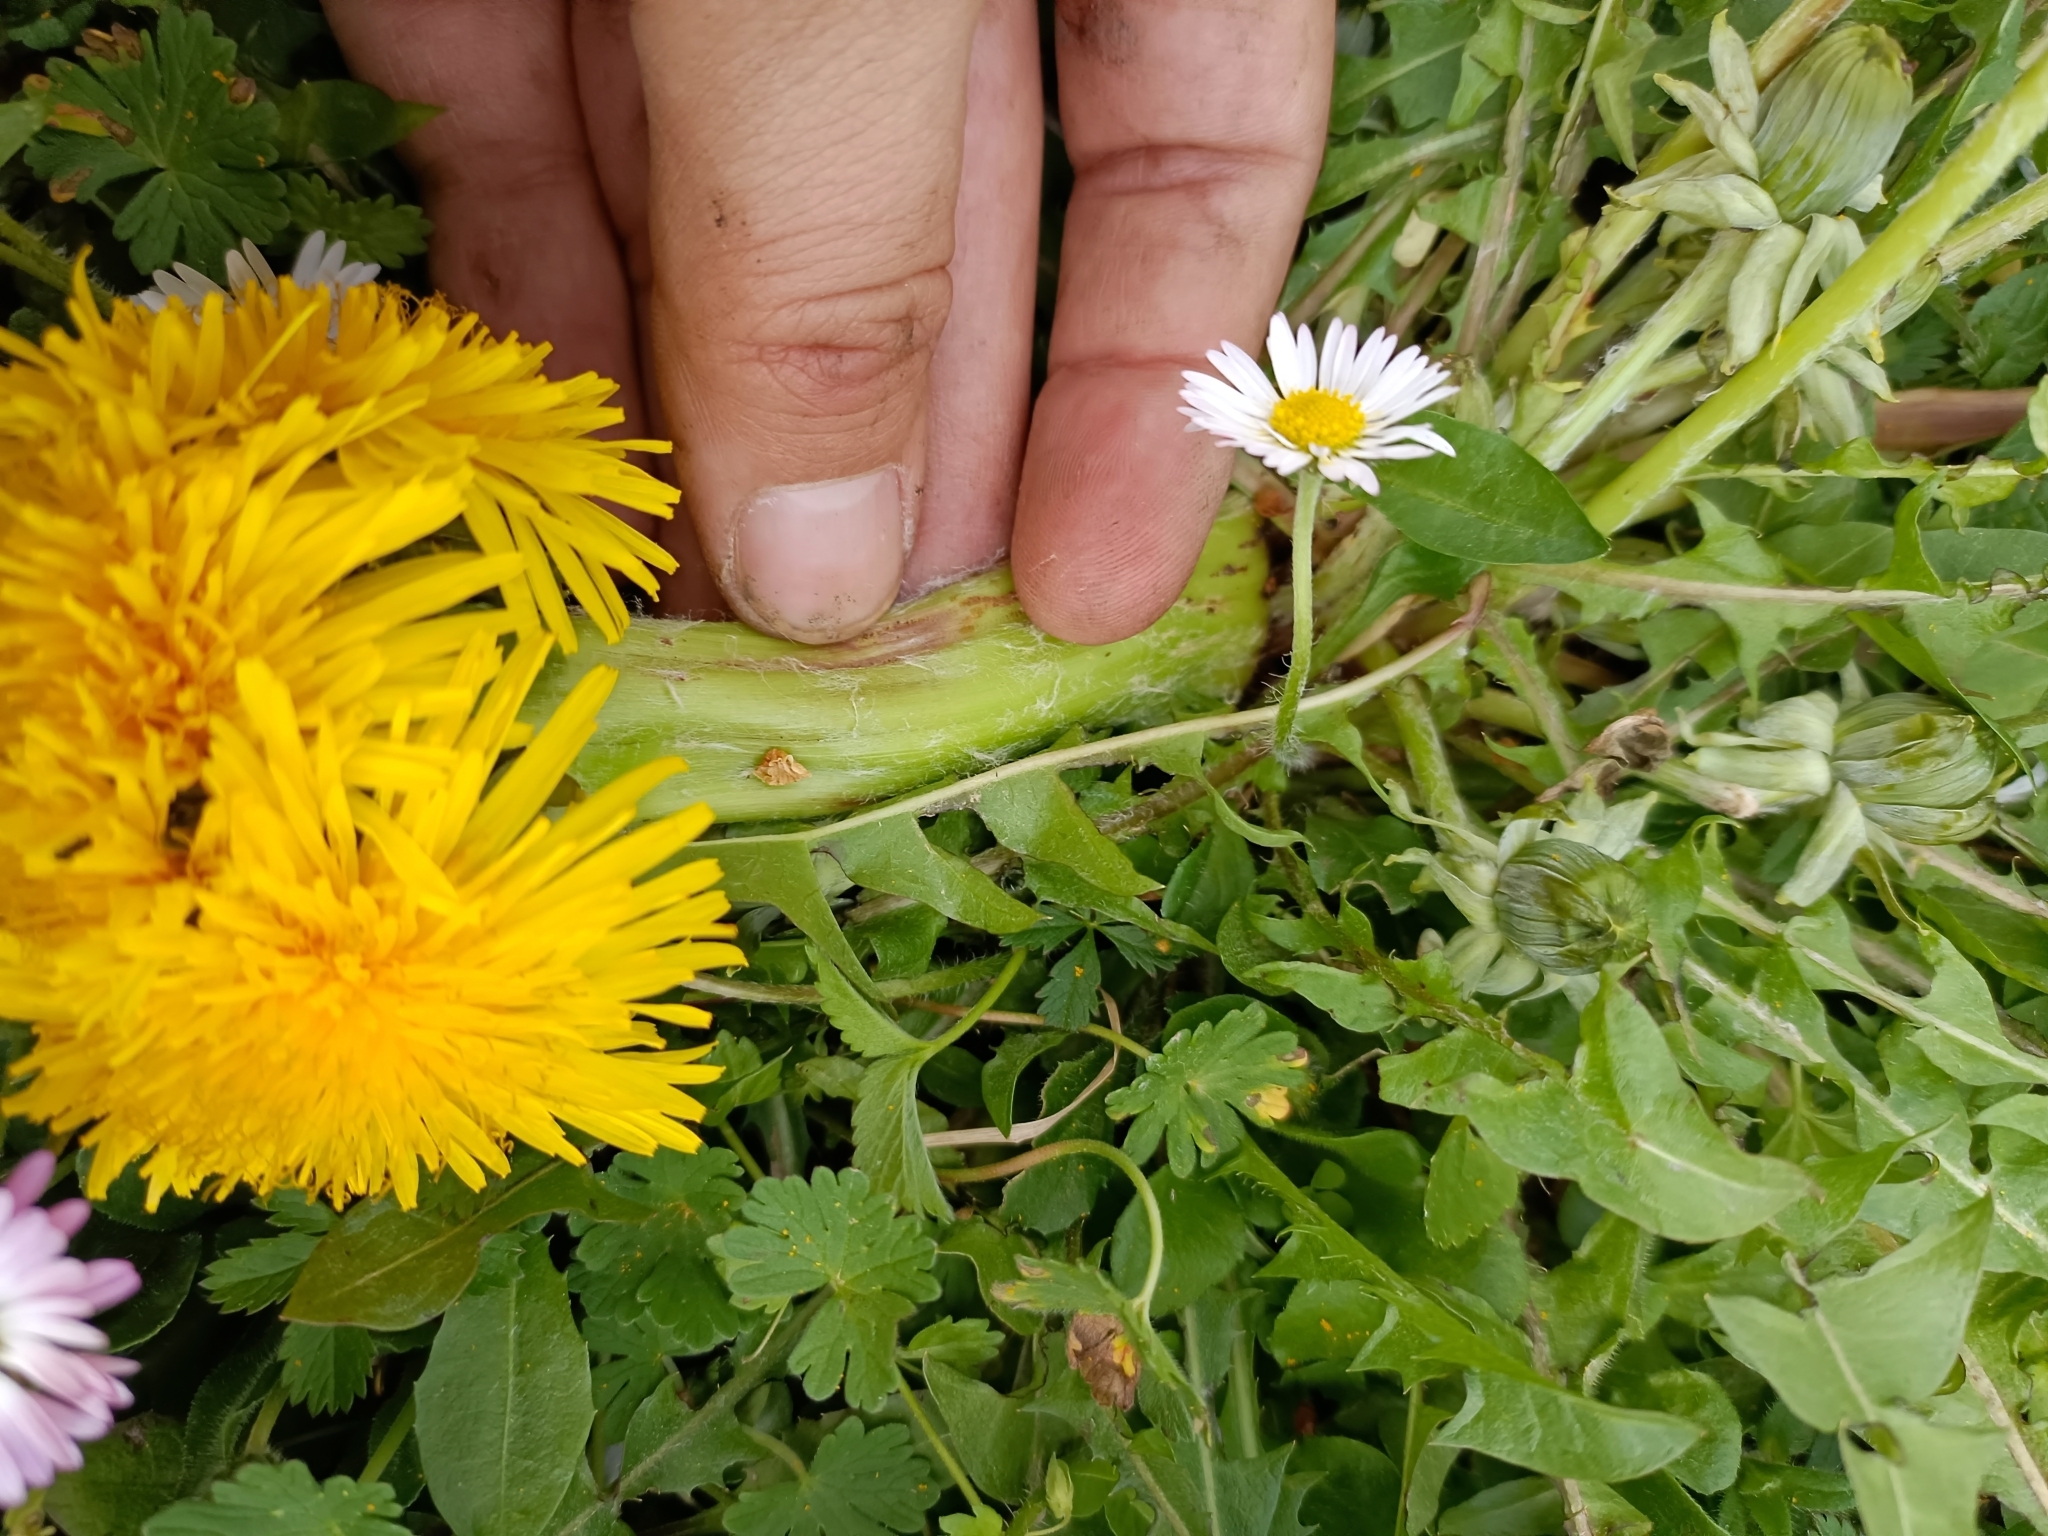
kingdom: Plantae
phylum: Tracheophyta
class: Magnoliopsida
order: Asterales
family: Asteraceae
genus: Taraxacum
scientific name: Taraxacum
